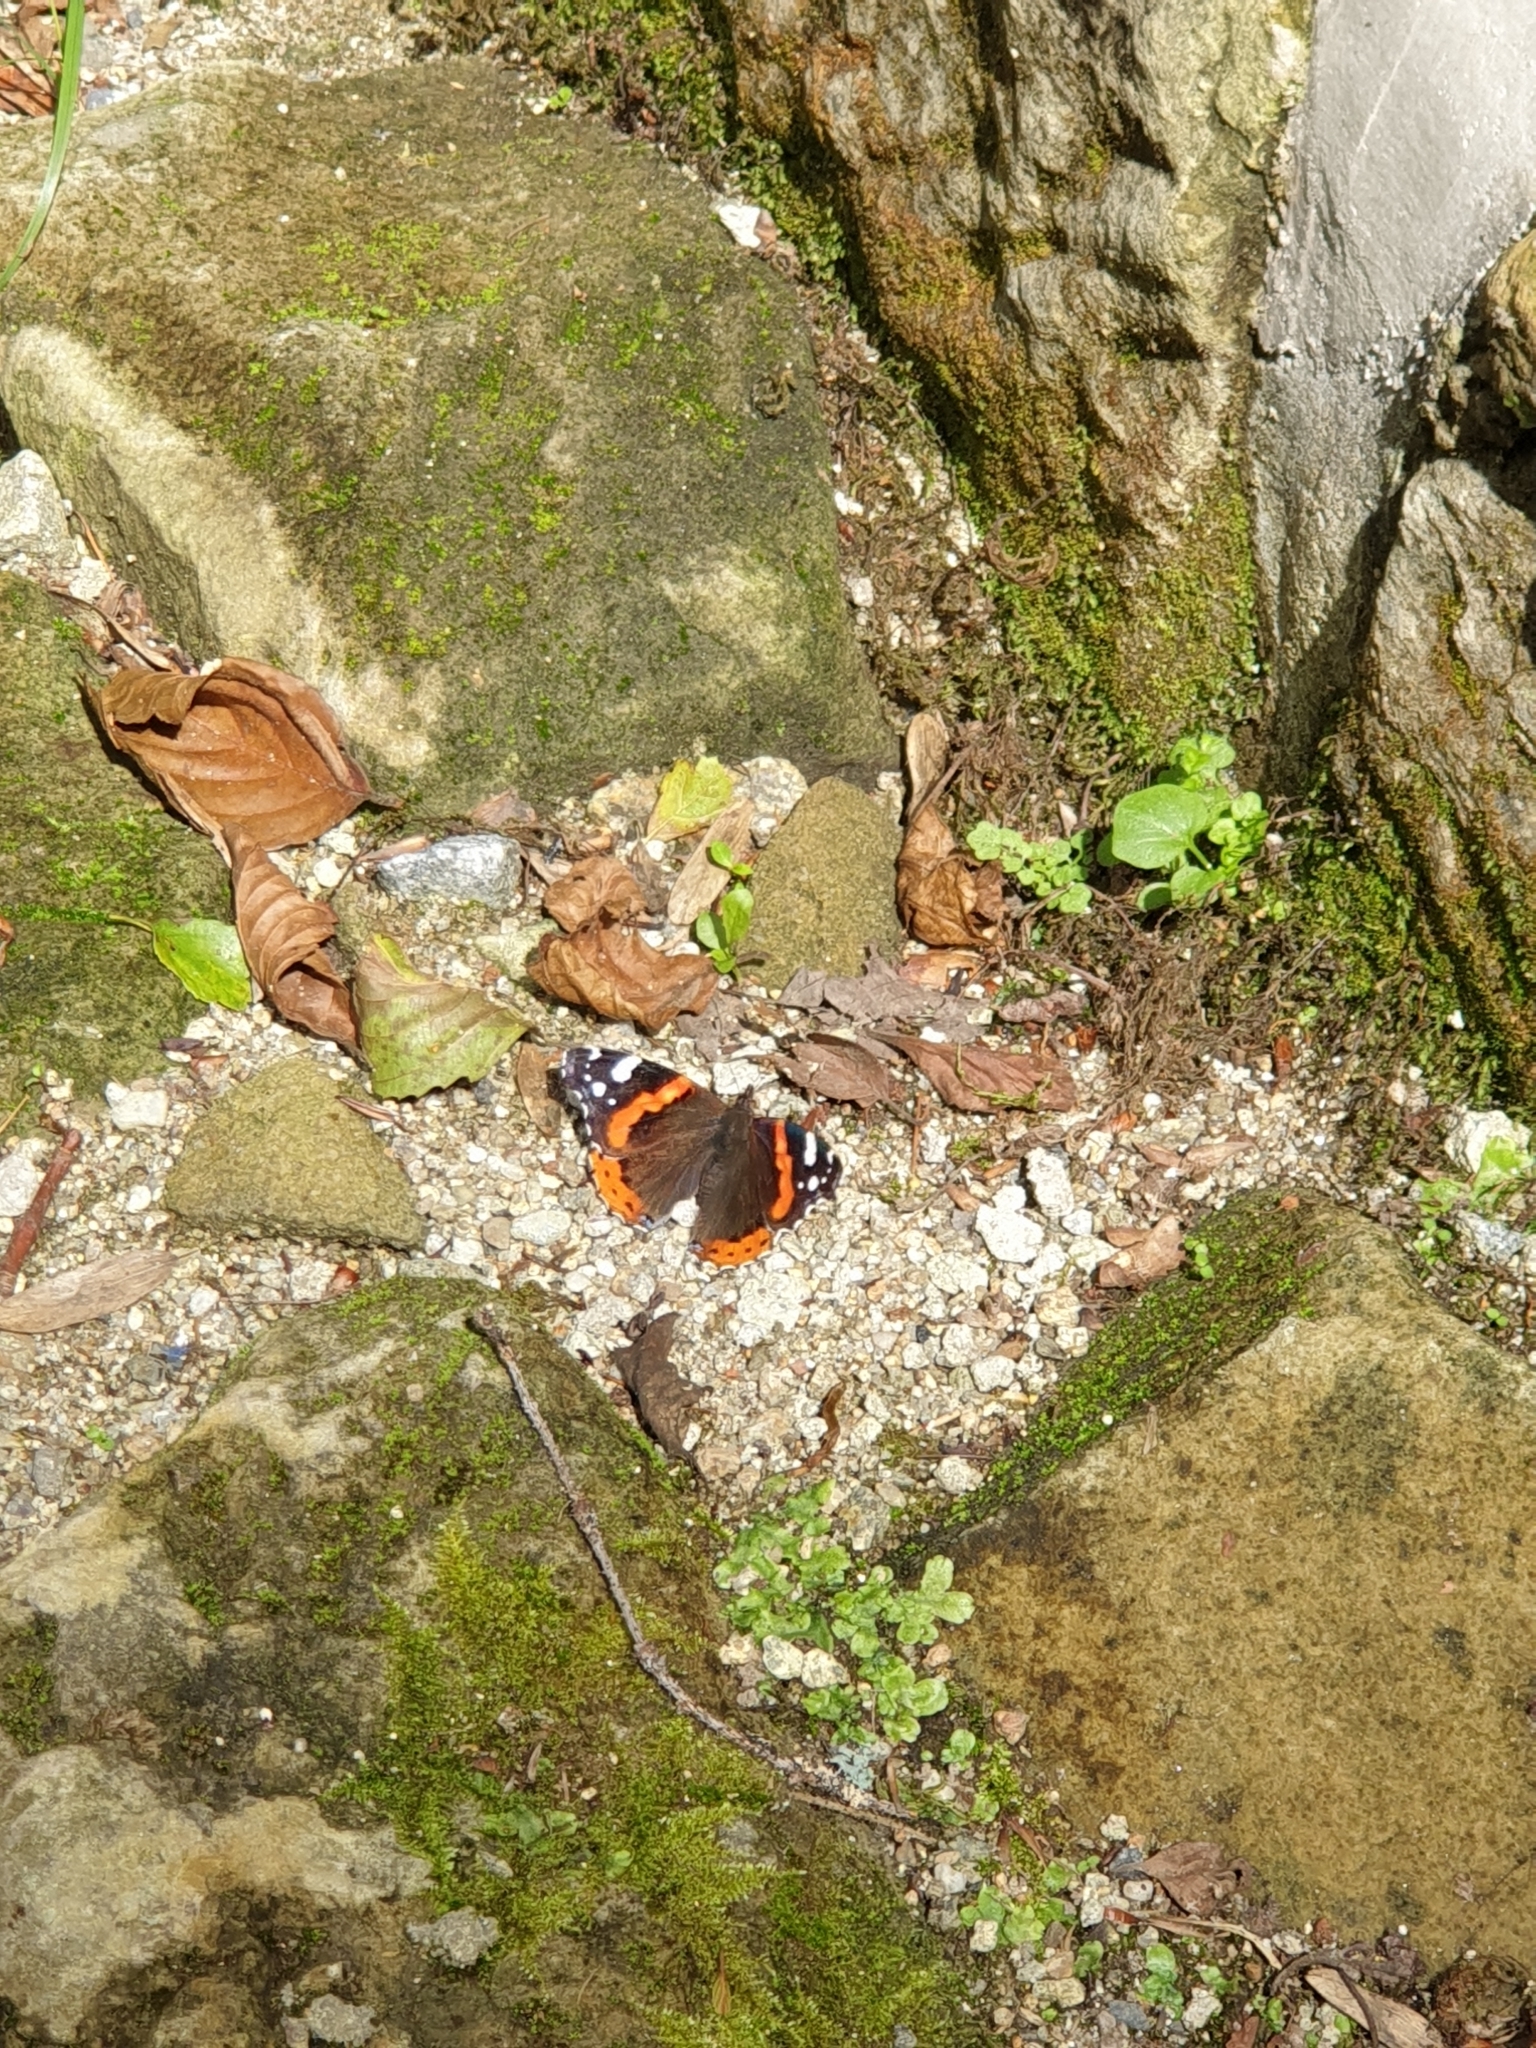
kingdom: Animalia
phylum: Arthropoda
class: Insecta
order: Lepidoptera
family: Nymphalidae
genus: Vanessa
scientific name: Vanessa atalanta
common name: Red admiral
